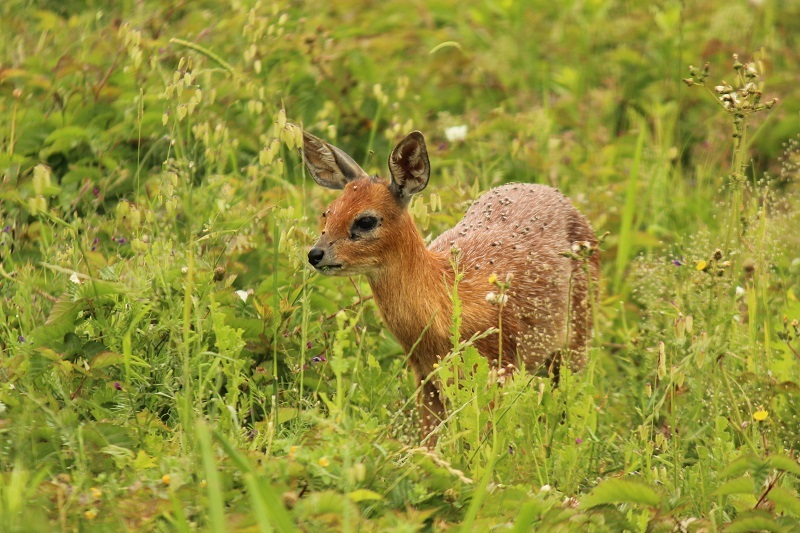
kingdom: Animalia
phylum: Chordata
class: Mammalia
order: Artiodactyla
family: Bovidae
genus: Raphicerus
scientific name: Raphicerus melanotis
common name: Cape grysbok
